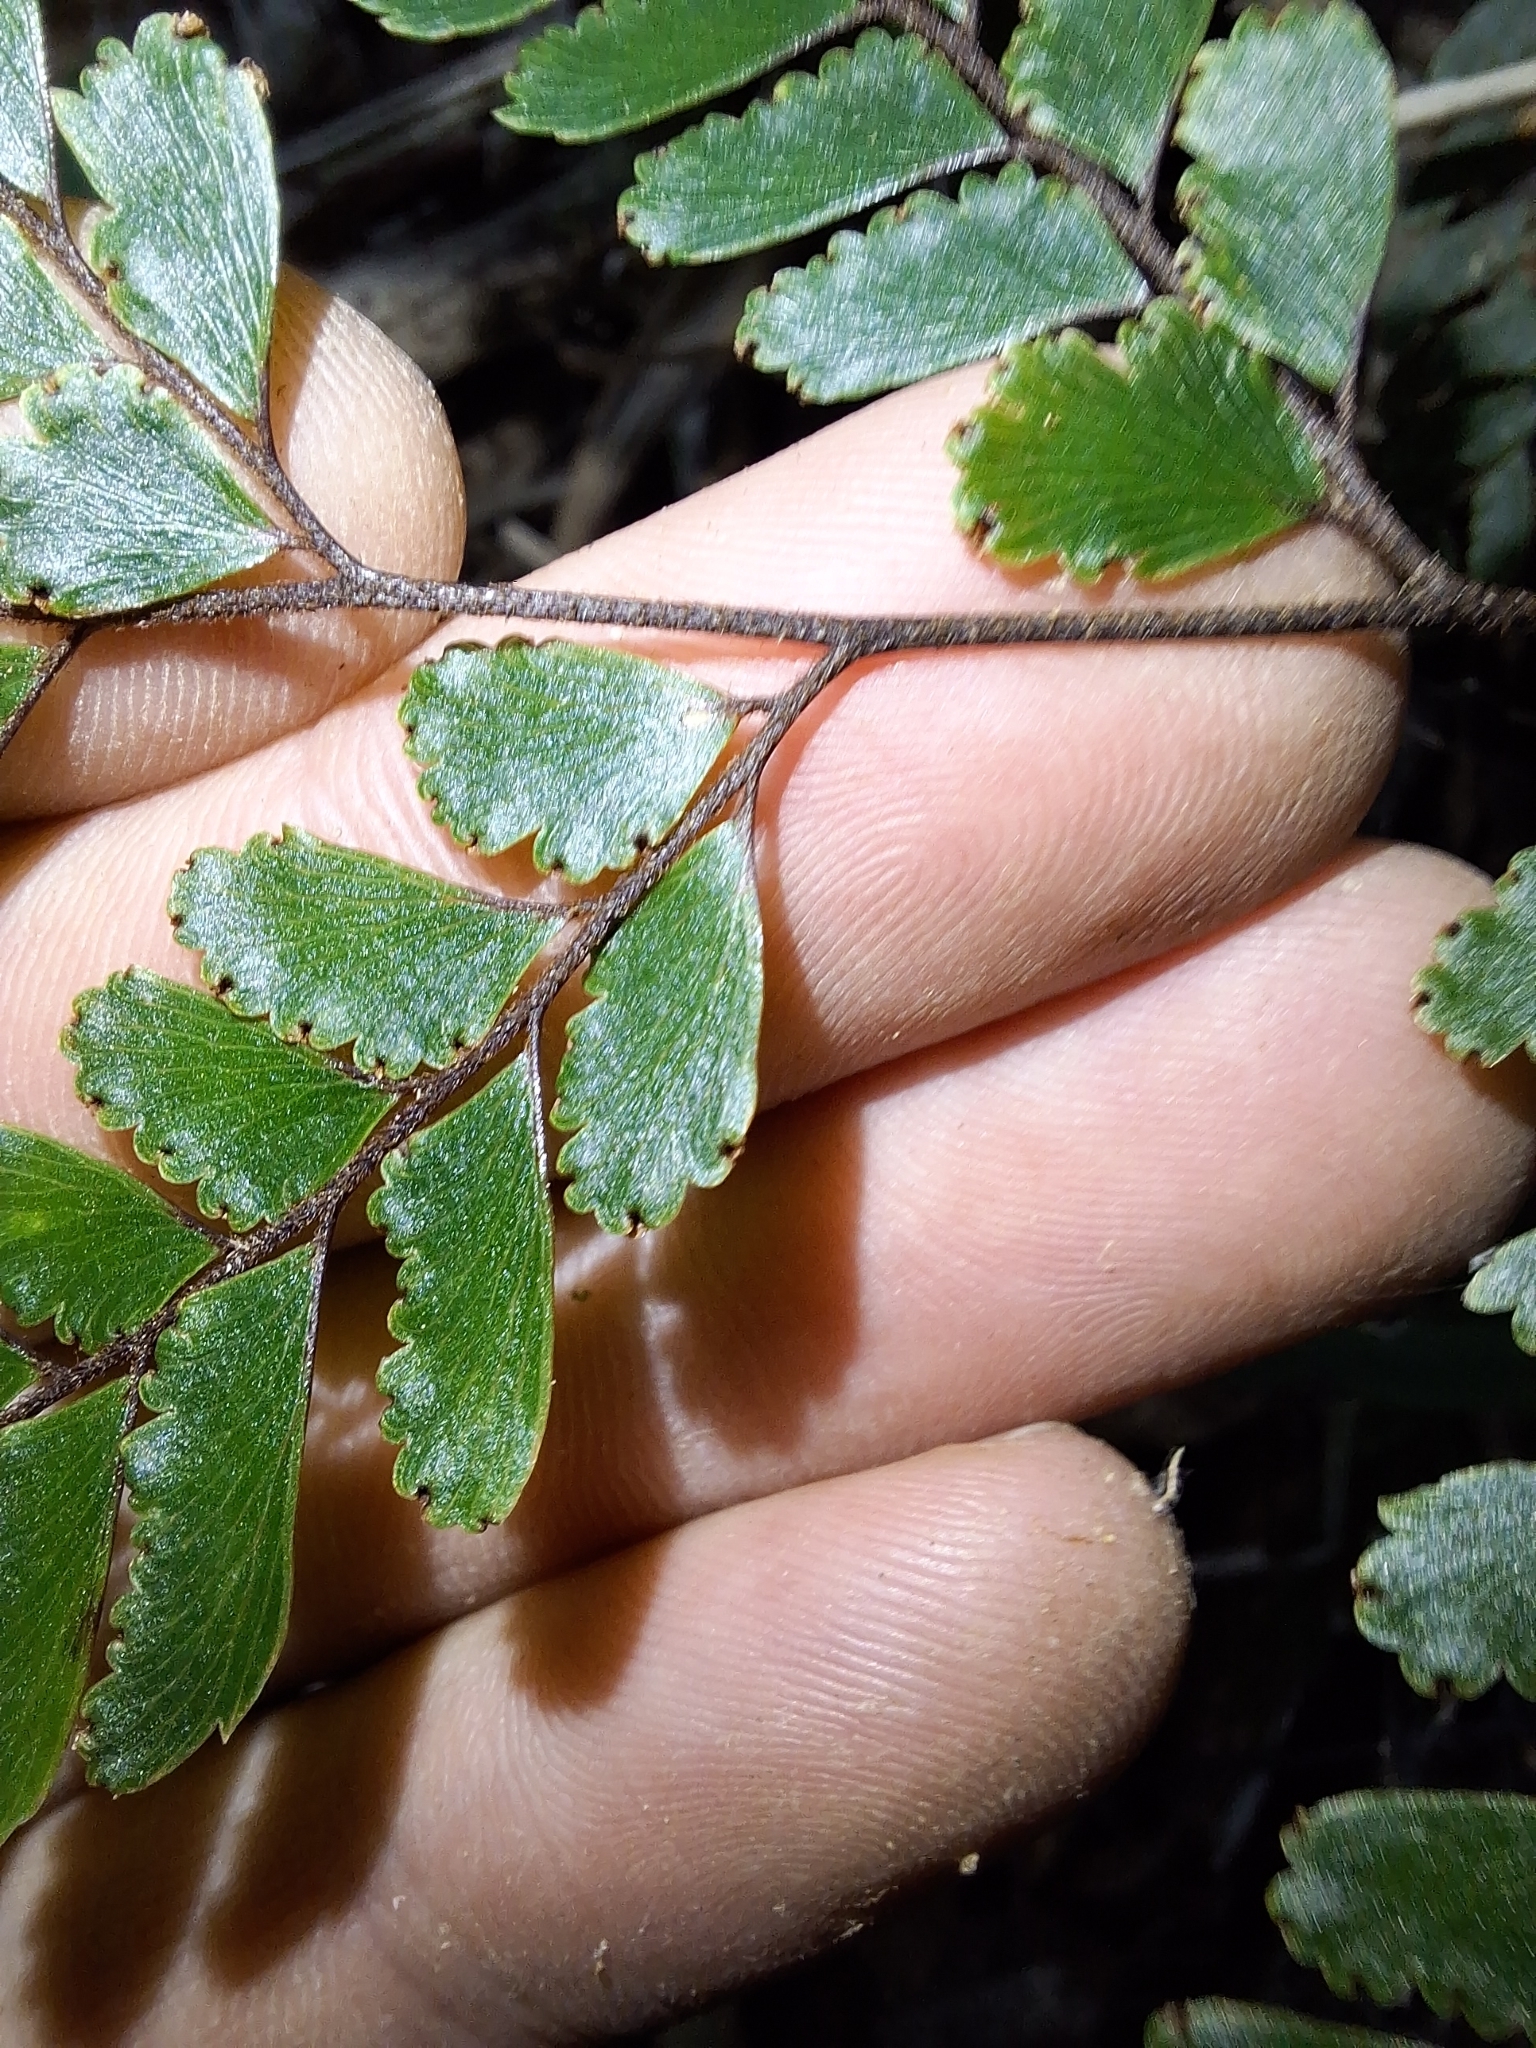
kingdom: Plantae
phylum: Tracheophyta
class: Polypodiopsida
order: Polypodiales
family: Pteridaceae
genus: Adiantum
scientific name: Adiantum fulvum
